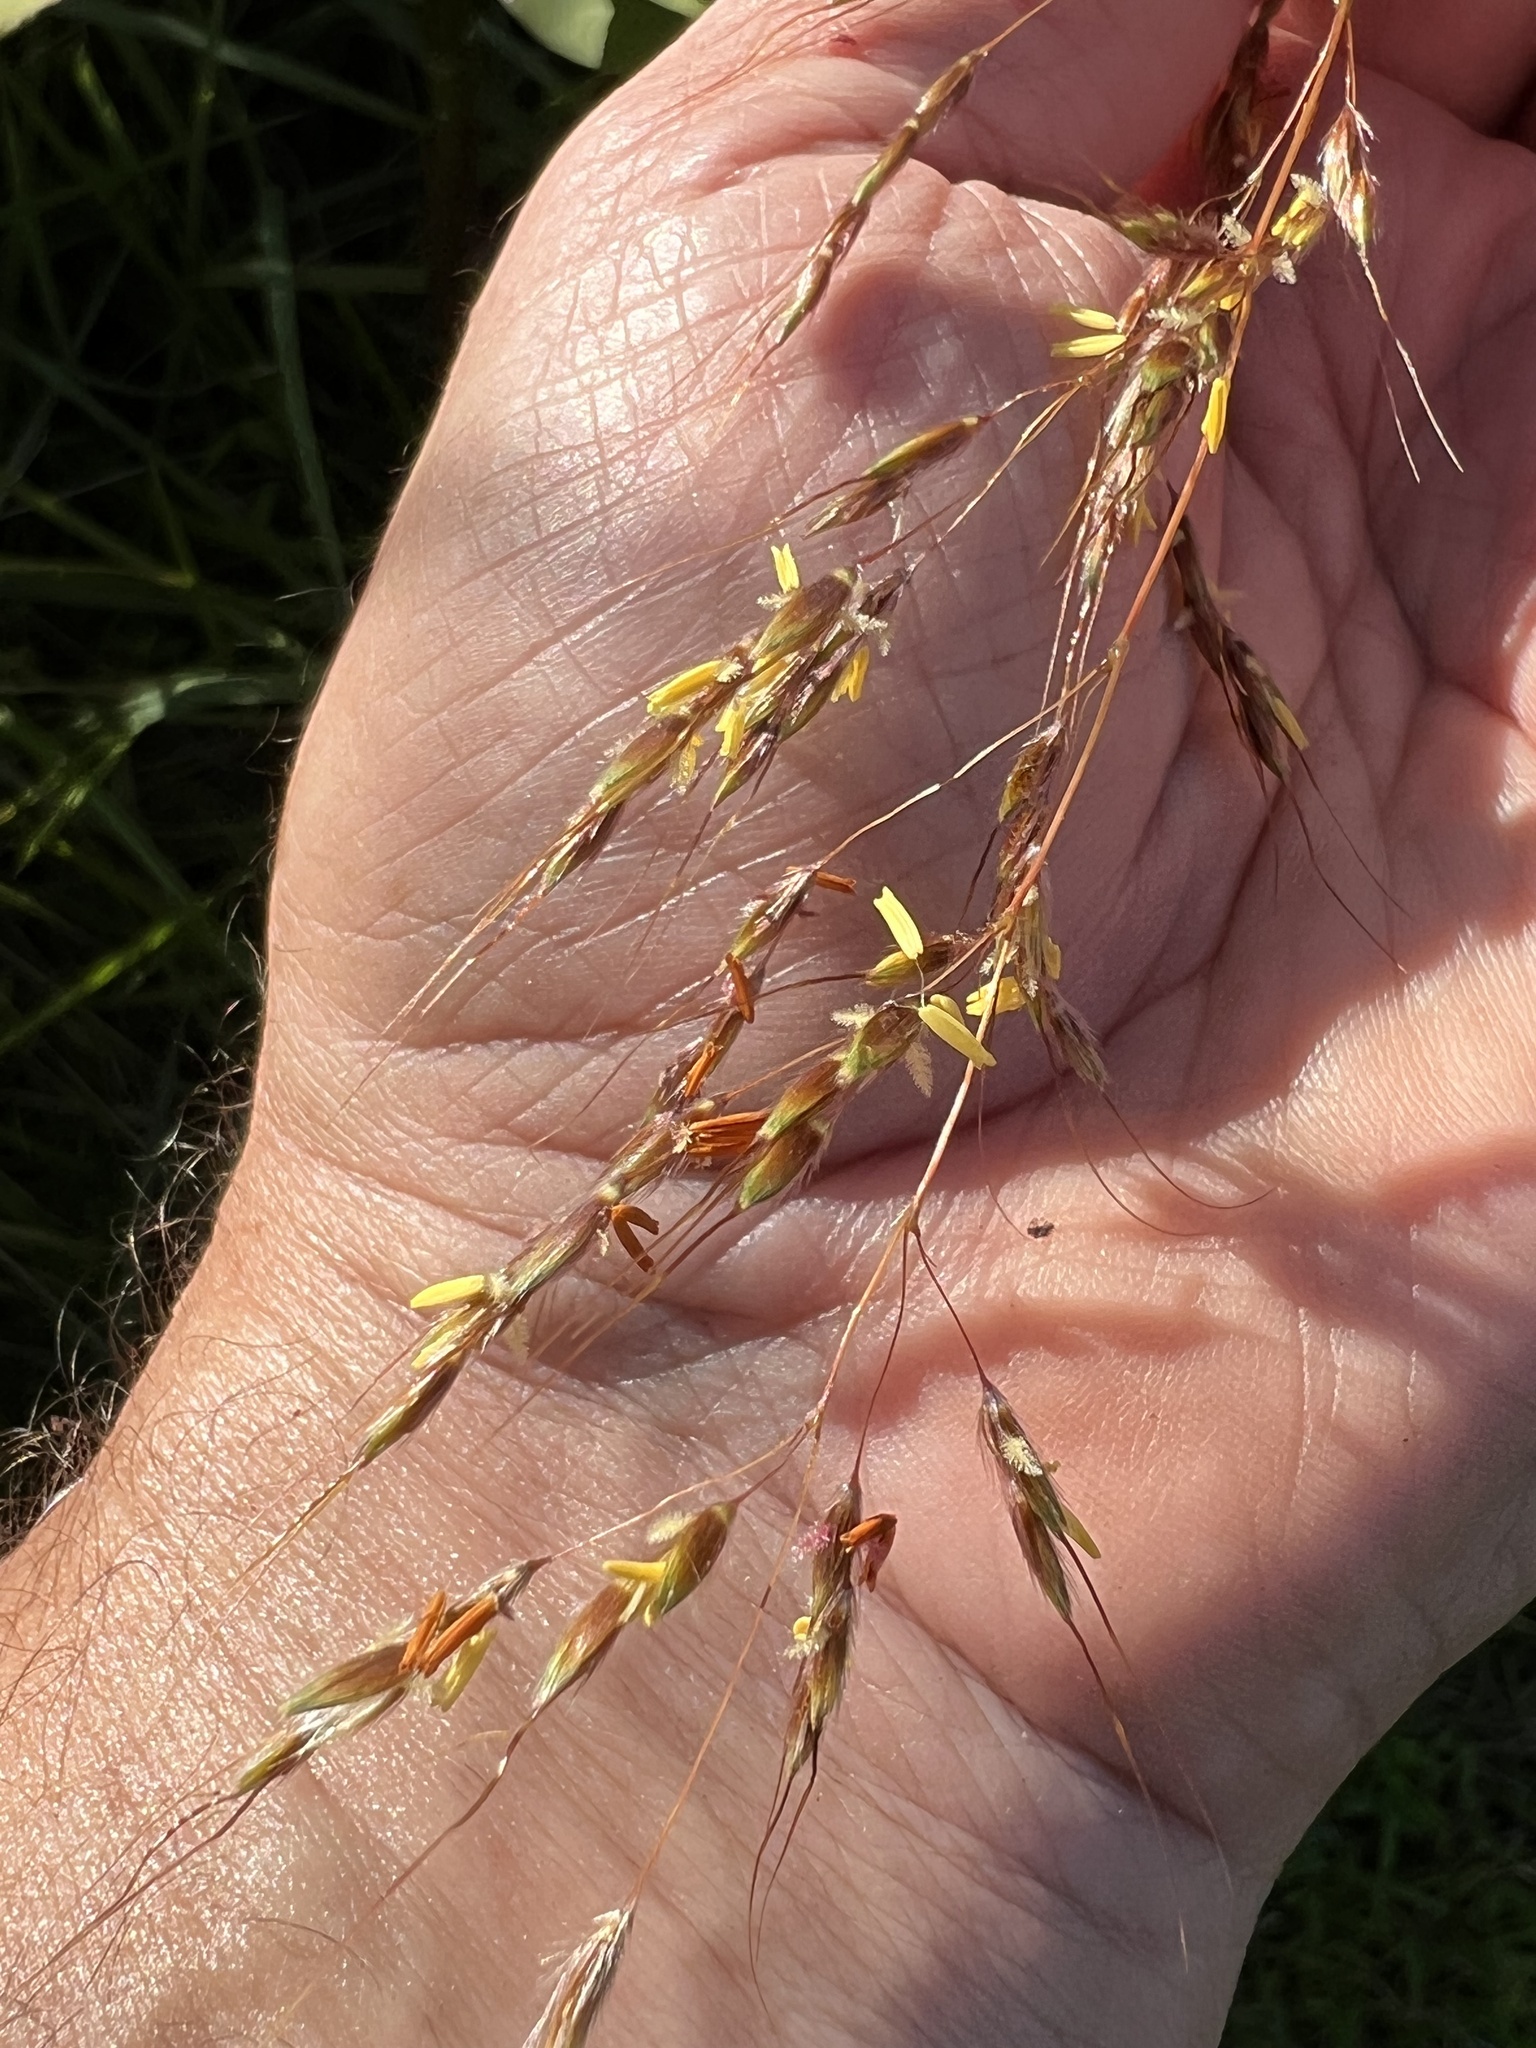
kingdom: Plantae
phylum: Tracheophyta
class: Liliopsida
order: Poales
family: Poaceae
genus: Sorghastrum
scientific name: Sorghastrum nutans
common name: Indian grass
